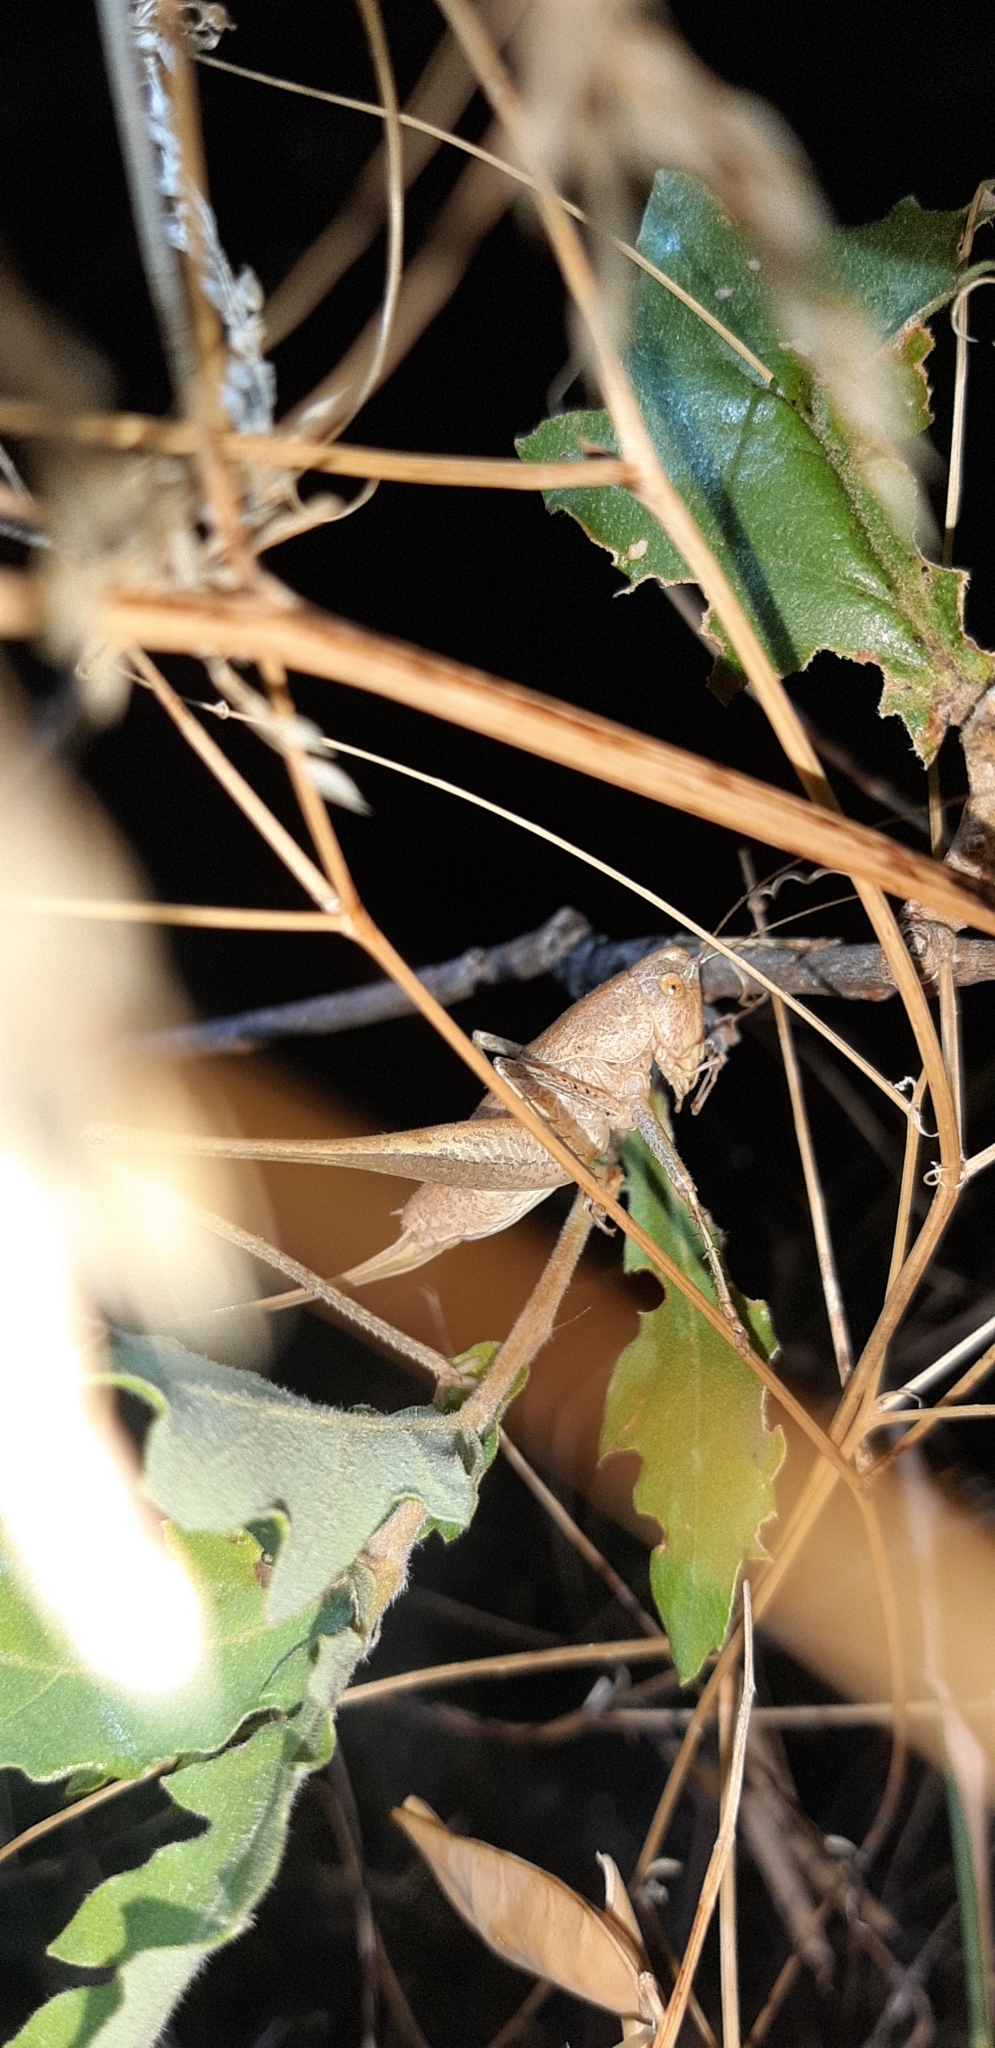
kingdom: Animalia
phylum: Arthropoda
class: Insecta
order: Orthoptera
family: Tettigoniidae
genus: Rhacocleis
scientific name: Rhacocleis neglecta
